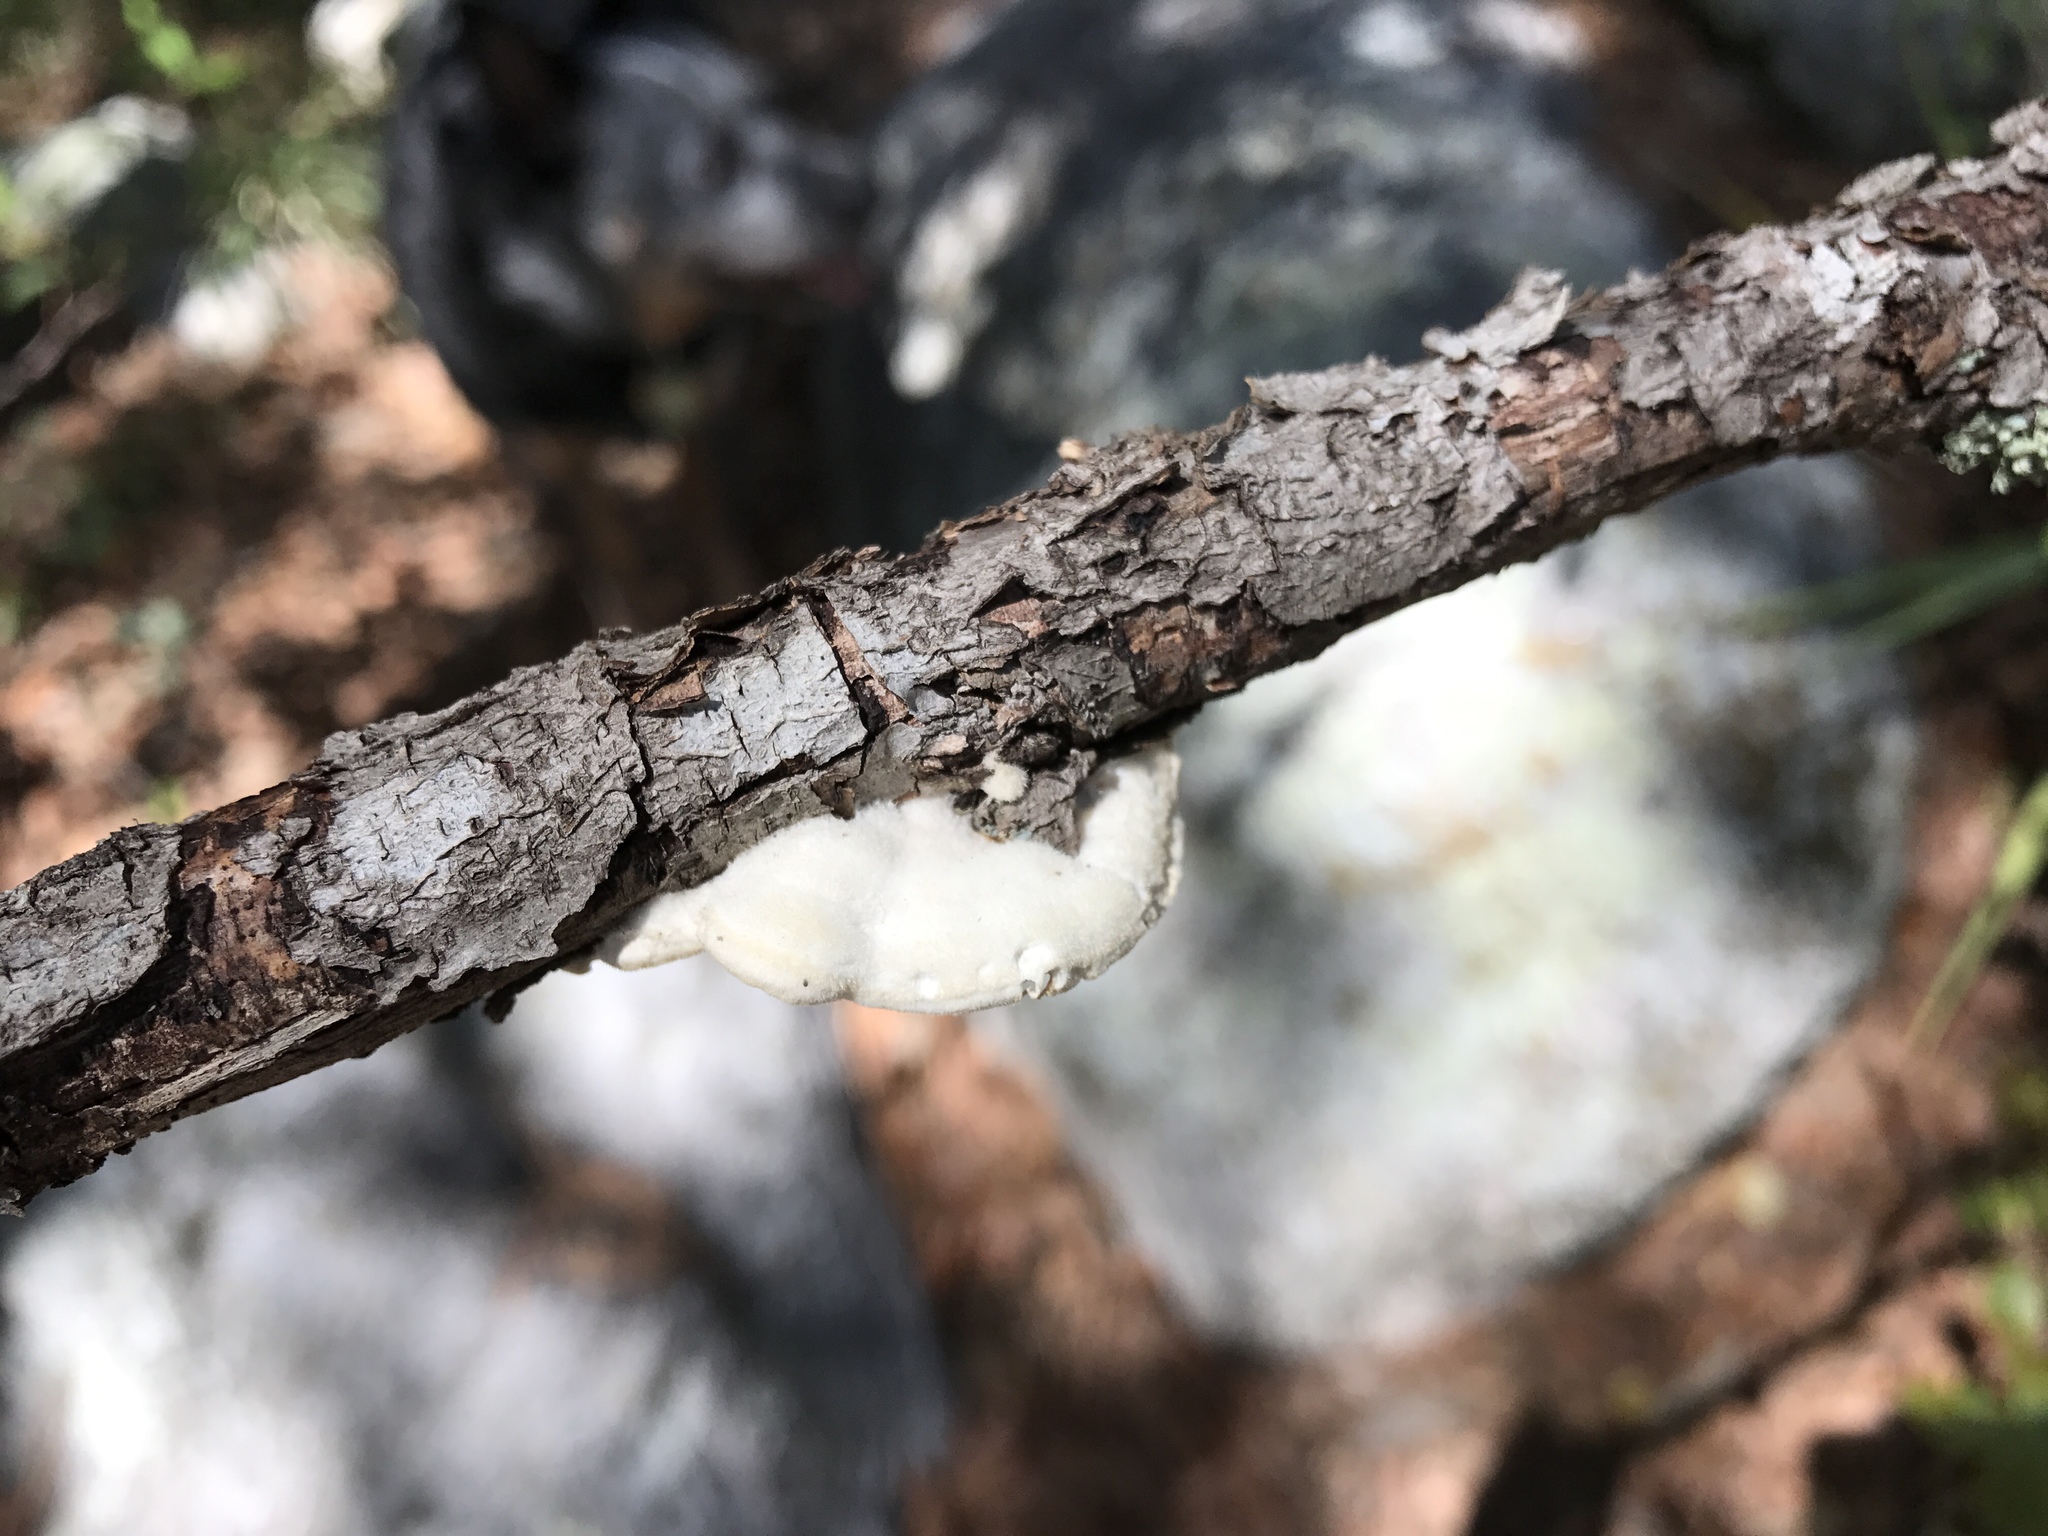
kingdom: Fungi
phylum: Basidiomycota
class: Agaricomycetes
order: Polyporales
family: Irpicaceae
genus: Byssomerulius
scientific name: Byssomerulius corium
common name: Netted crust
